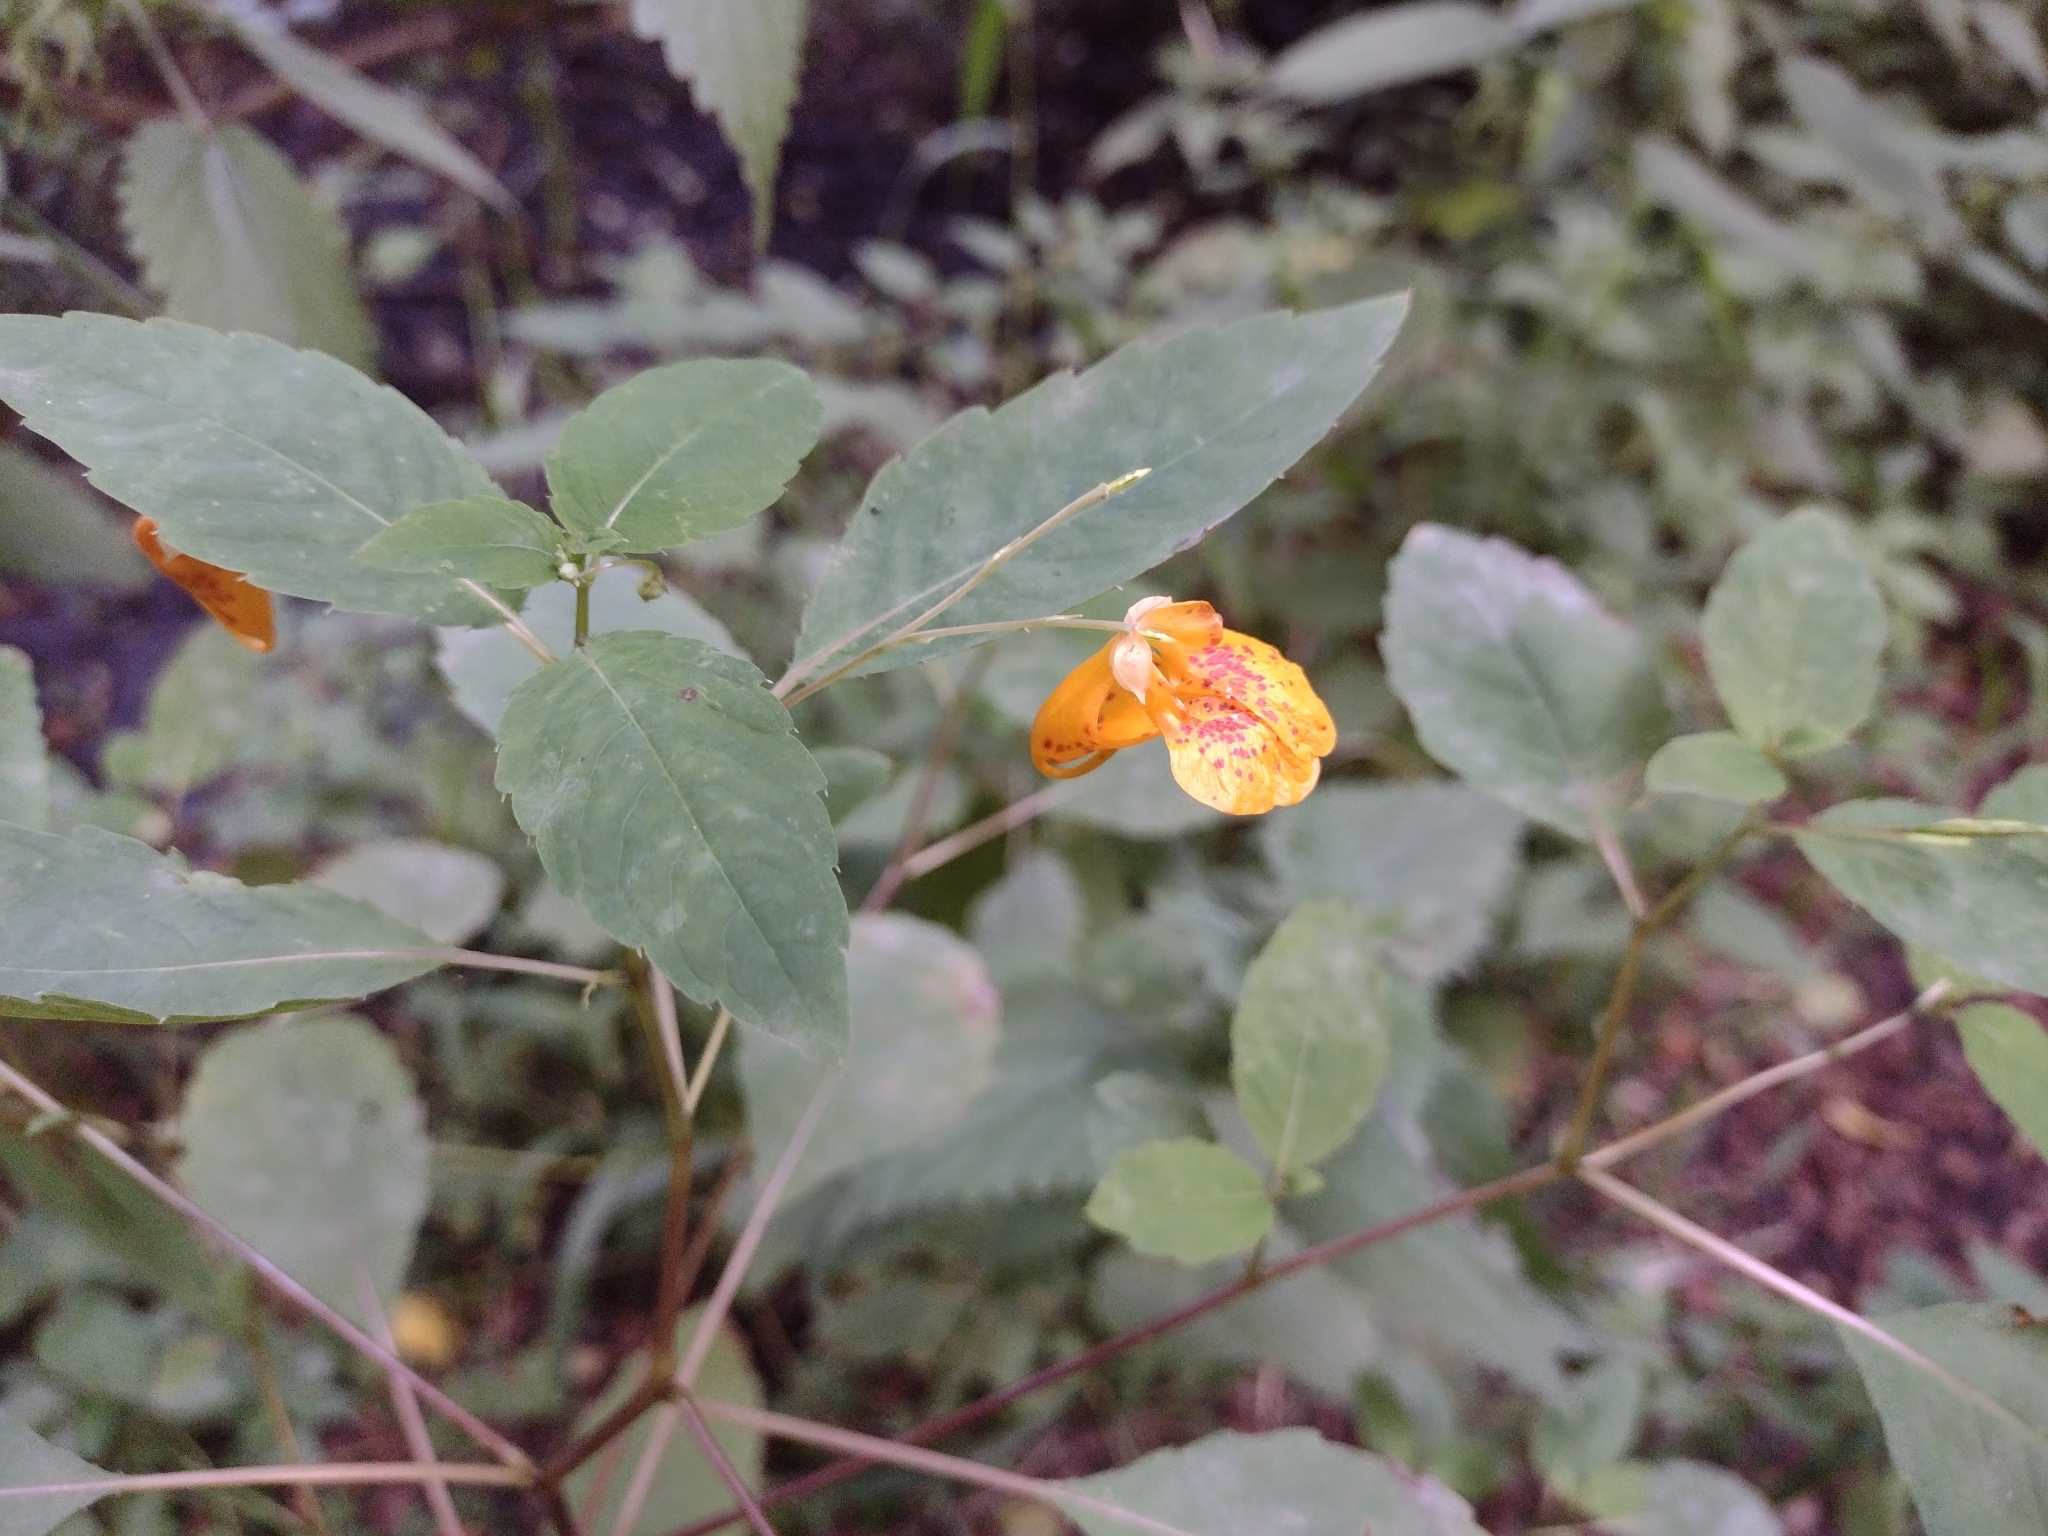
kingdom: Plantae
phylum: Tracheophyta
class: Magnoliopsida
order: Ericales
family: Balsaminaceae
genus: Impatiens
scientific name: Impatiens capensis
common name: Orange balsam
